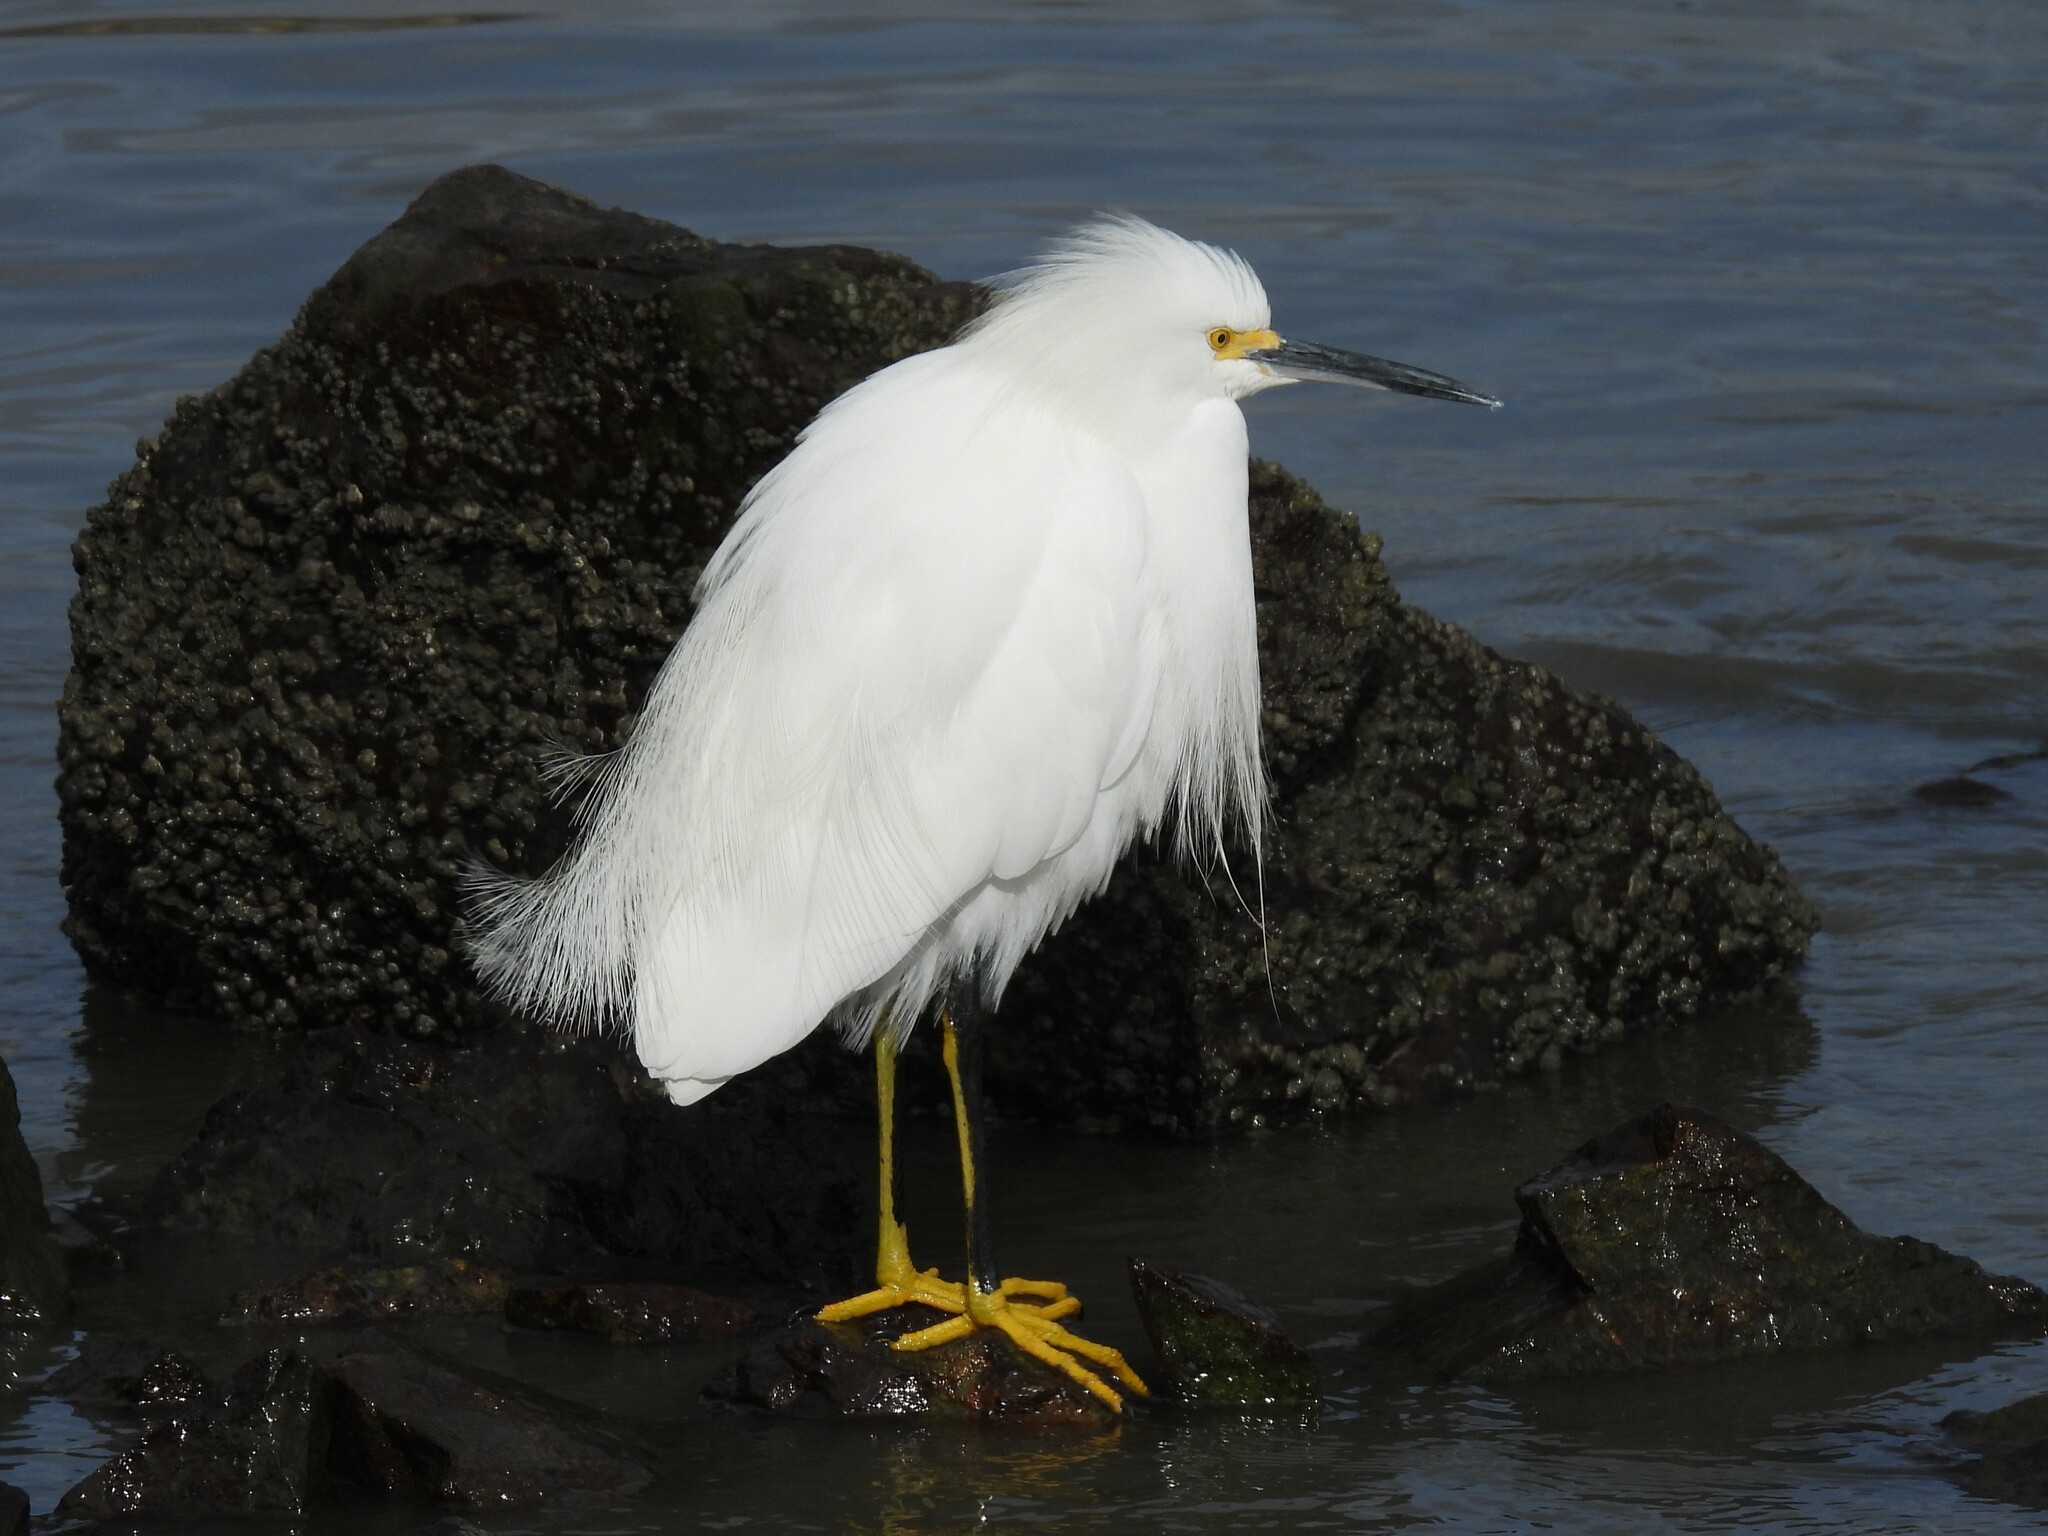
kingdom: Animalia
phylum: Chordata
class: Aves
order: Pelecaniformes
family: Ardeidae
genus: Egretta
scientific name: Egretta thula
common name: Snowy egret
